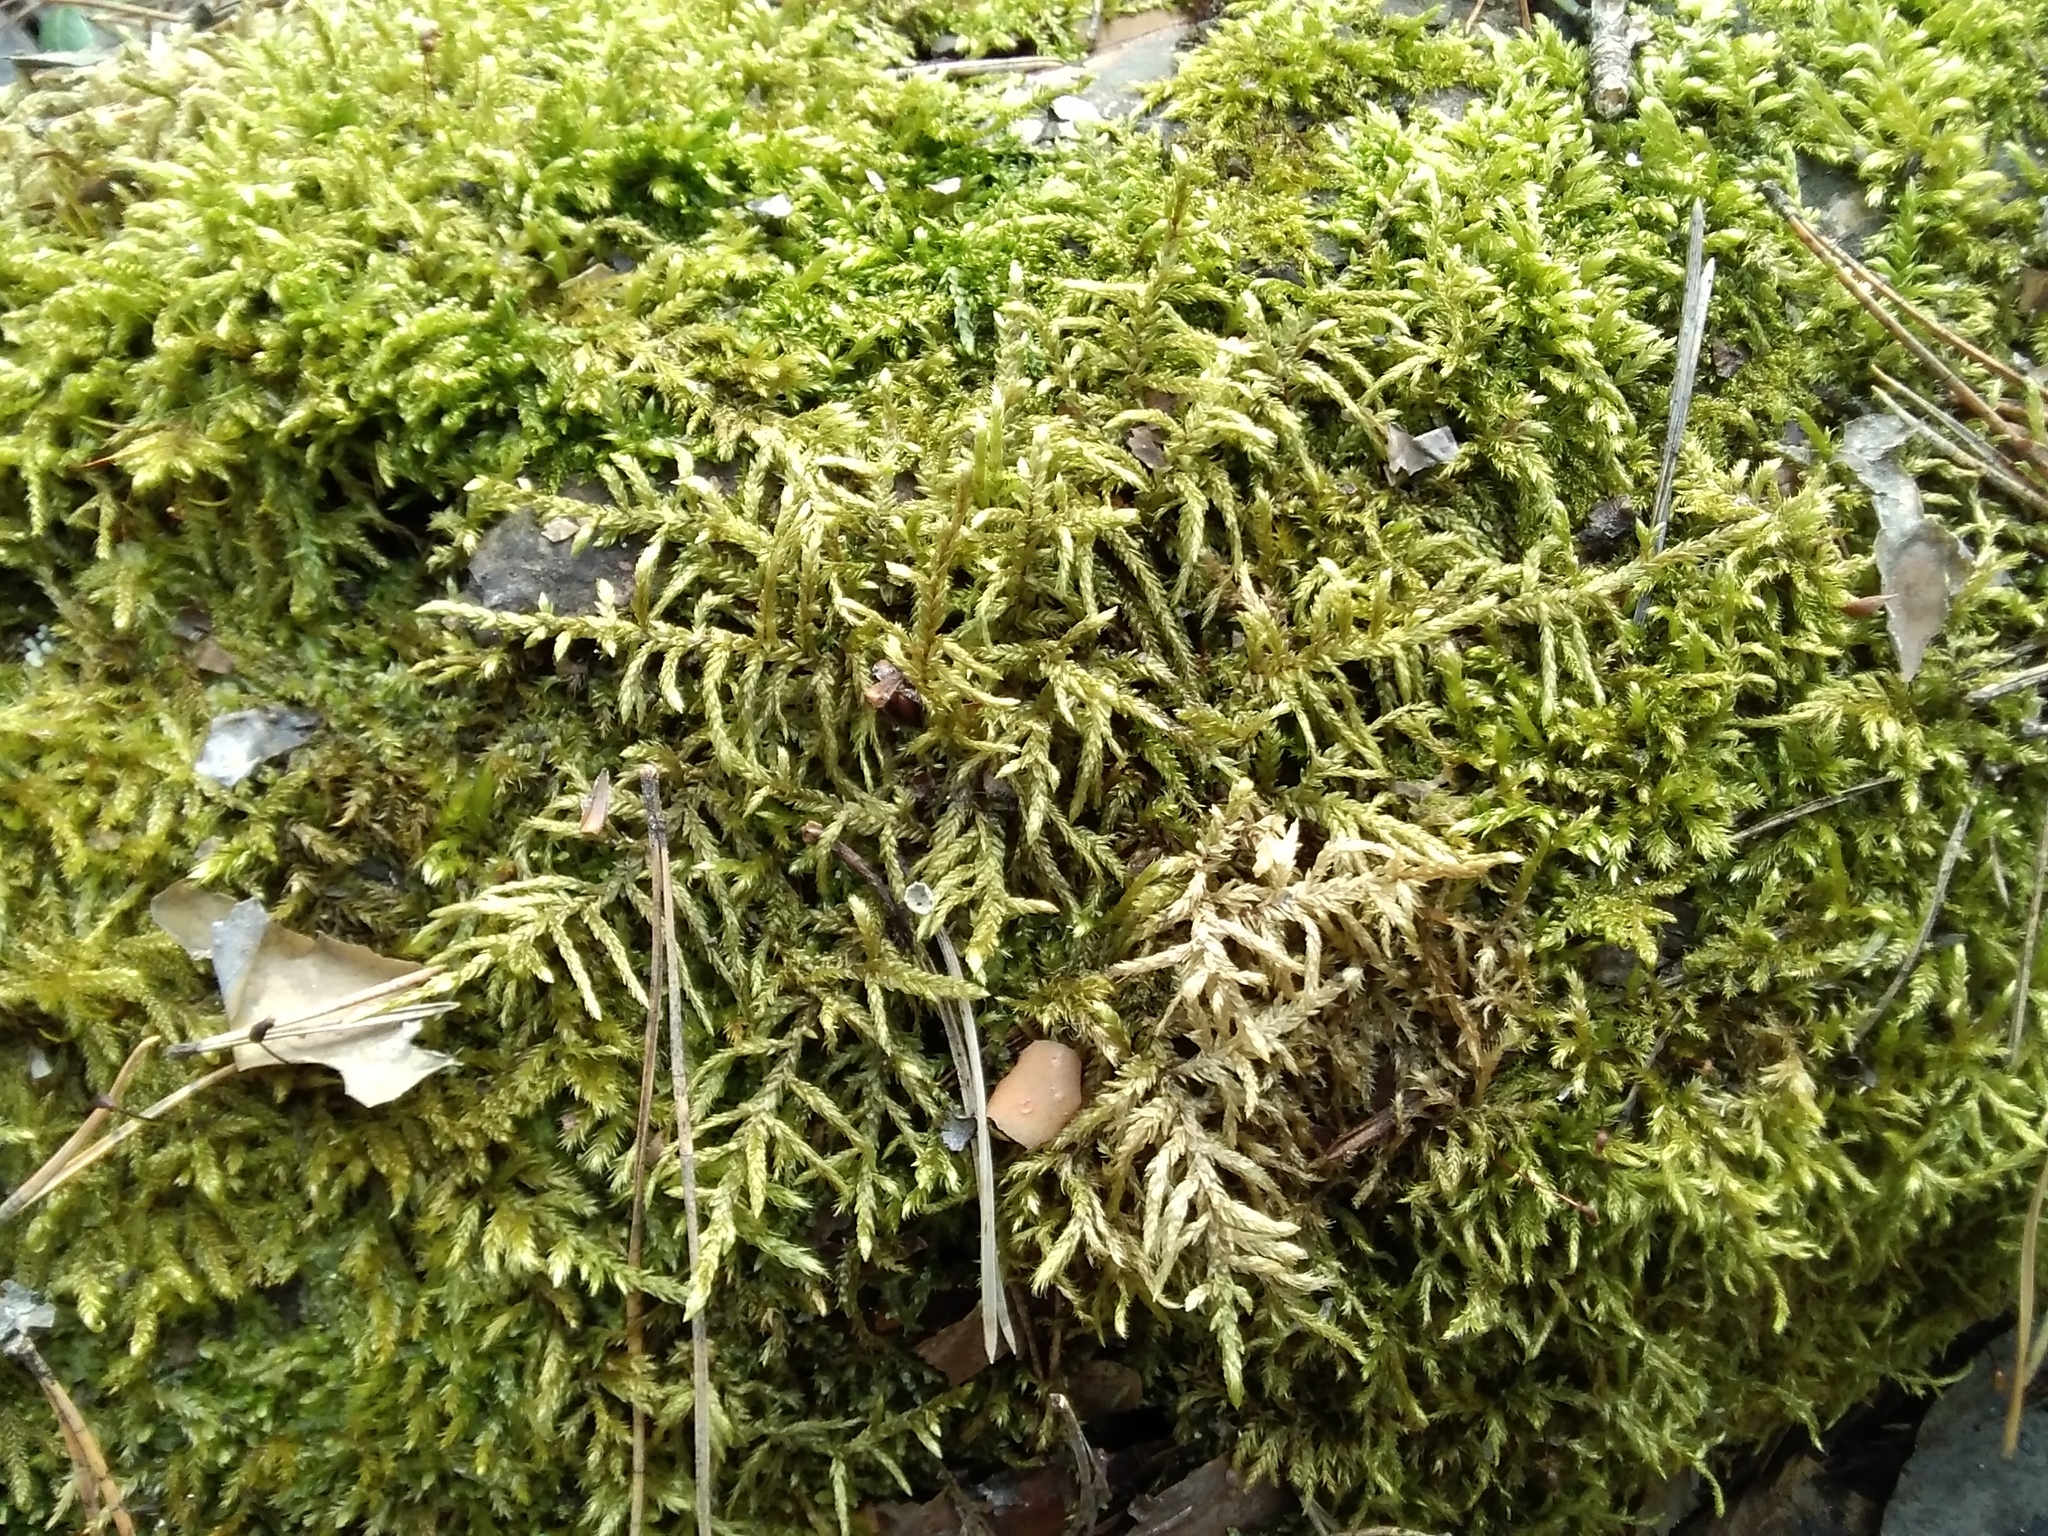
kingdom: Plantae
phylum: Bryophyta
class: Bryopsida
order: Hypnales
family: Hylocomiaceae
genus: Pleurozium
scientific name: Pleurozium schreberi
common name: Red-stemmed feather moss
